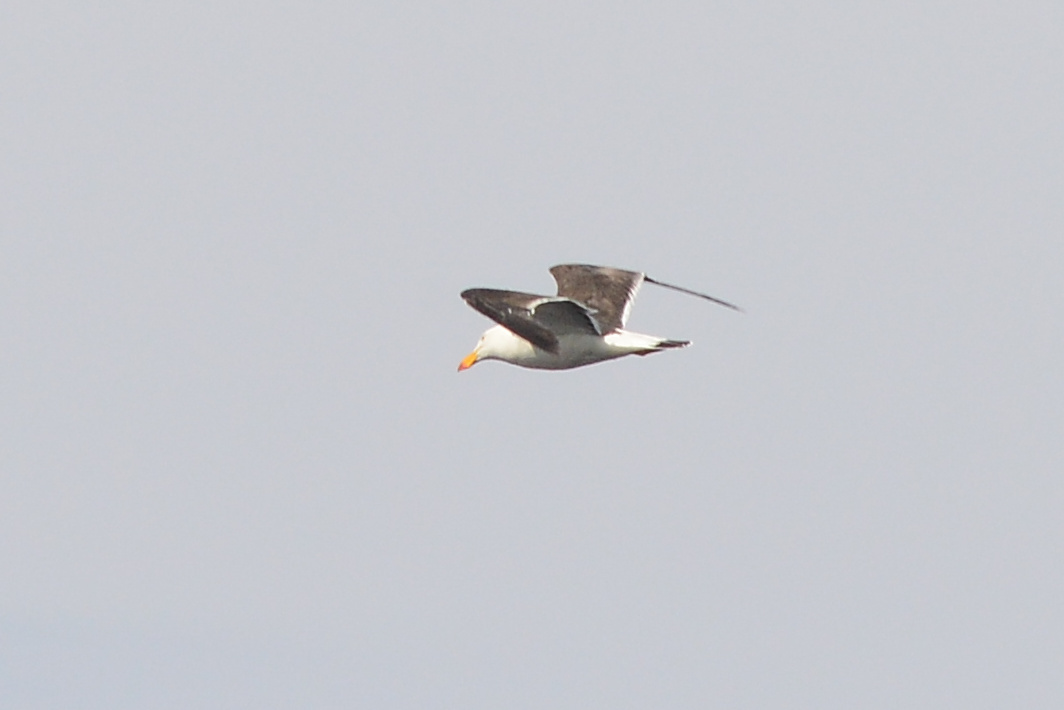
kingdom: Animalia
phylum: Chordata
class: Aves
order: Charadriiformes
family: Laridae
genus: Larus
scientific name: Larus pacificus
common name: Pacific gull
